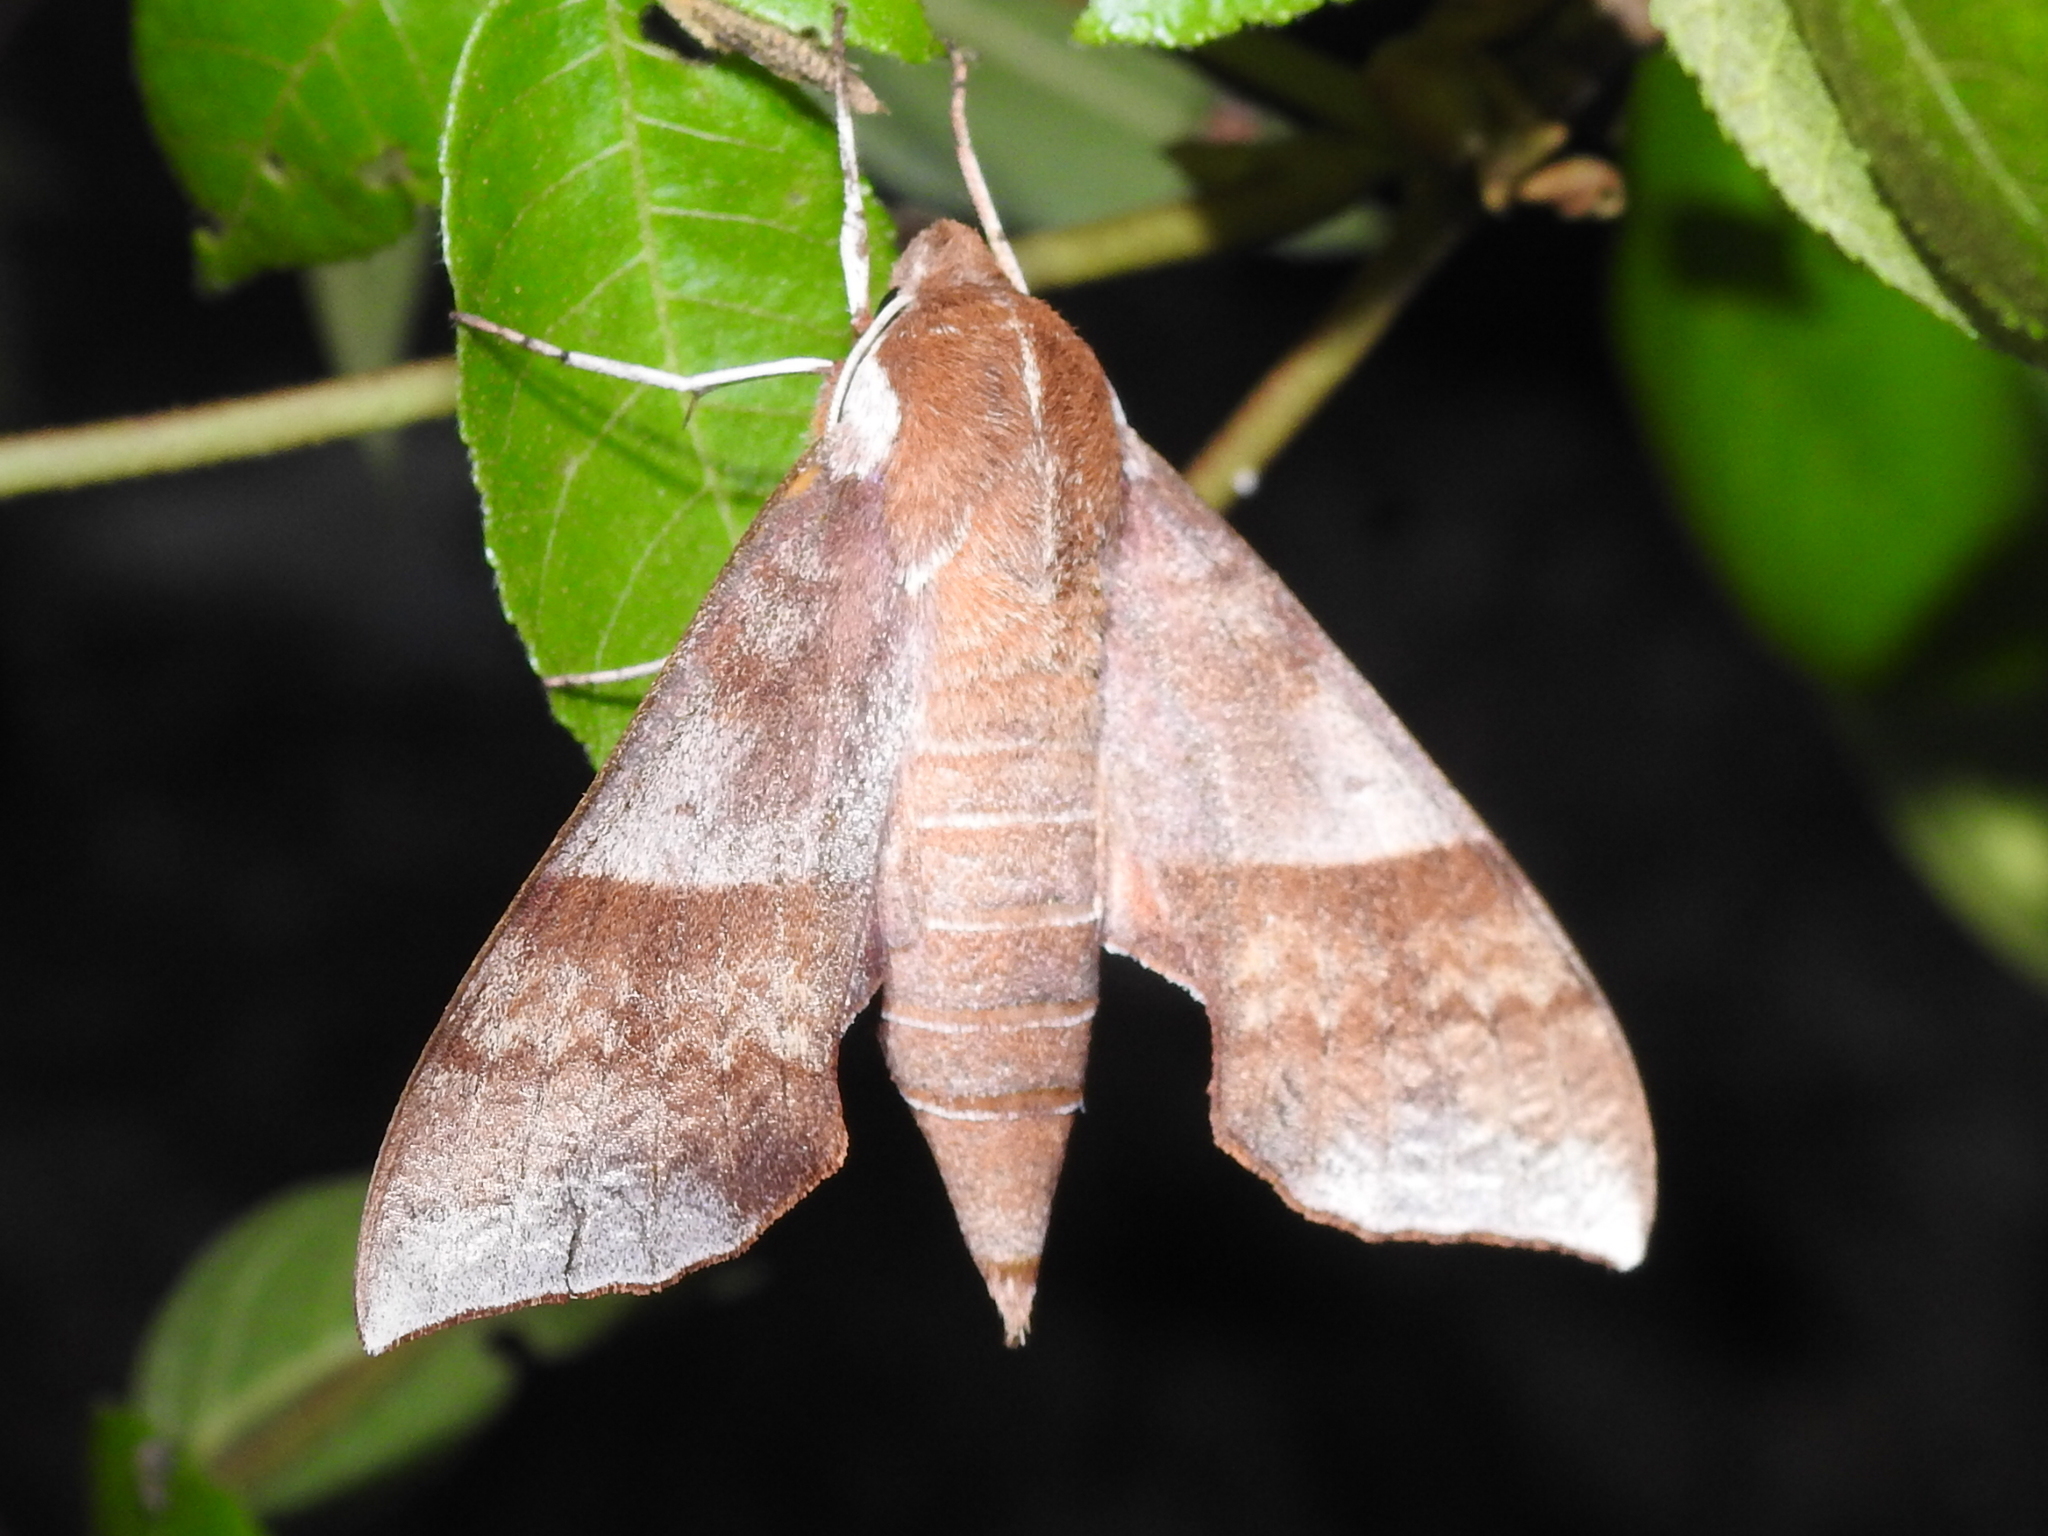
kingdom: Animalia
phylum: Arthropoda
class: Insecta
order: Lepidoptera
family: Sphingidae
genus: Darapsa
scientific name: Darapsa choerilus
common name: Azalea sphinx
